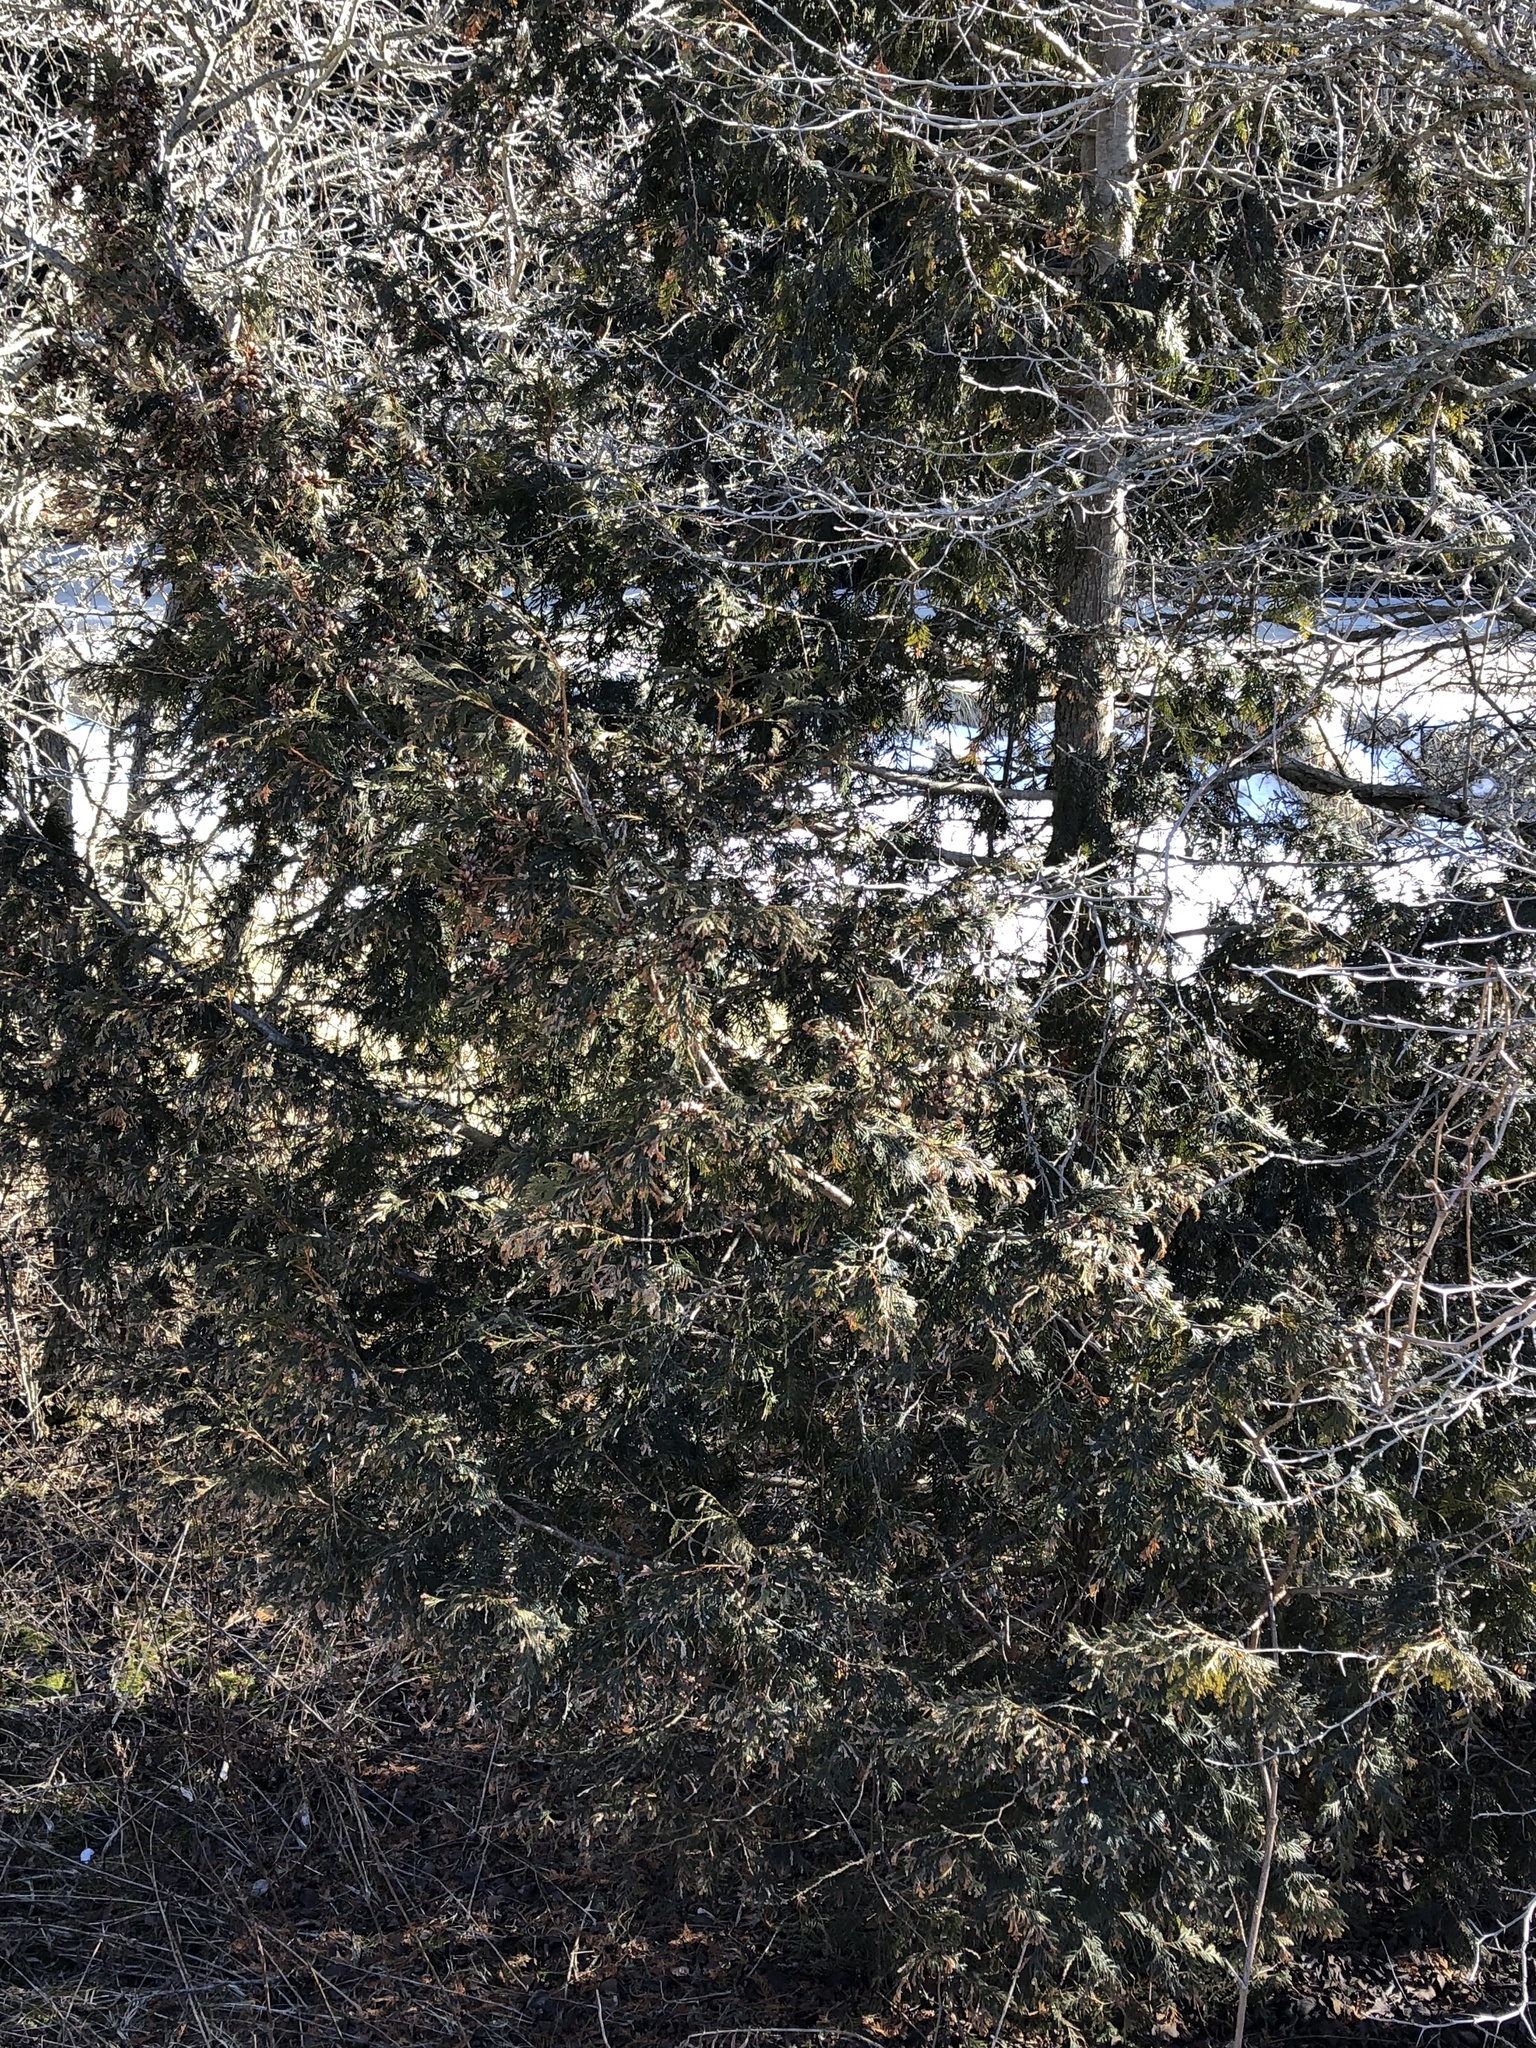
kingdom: Plantae
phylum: Tracheophyta
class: Pinopsida
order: Pinales
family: Cupressaceae
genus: Thuja
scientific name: Thuja occidentalis
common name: Northern white-cedar
